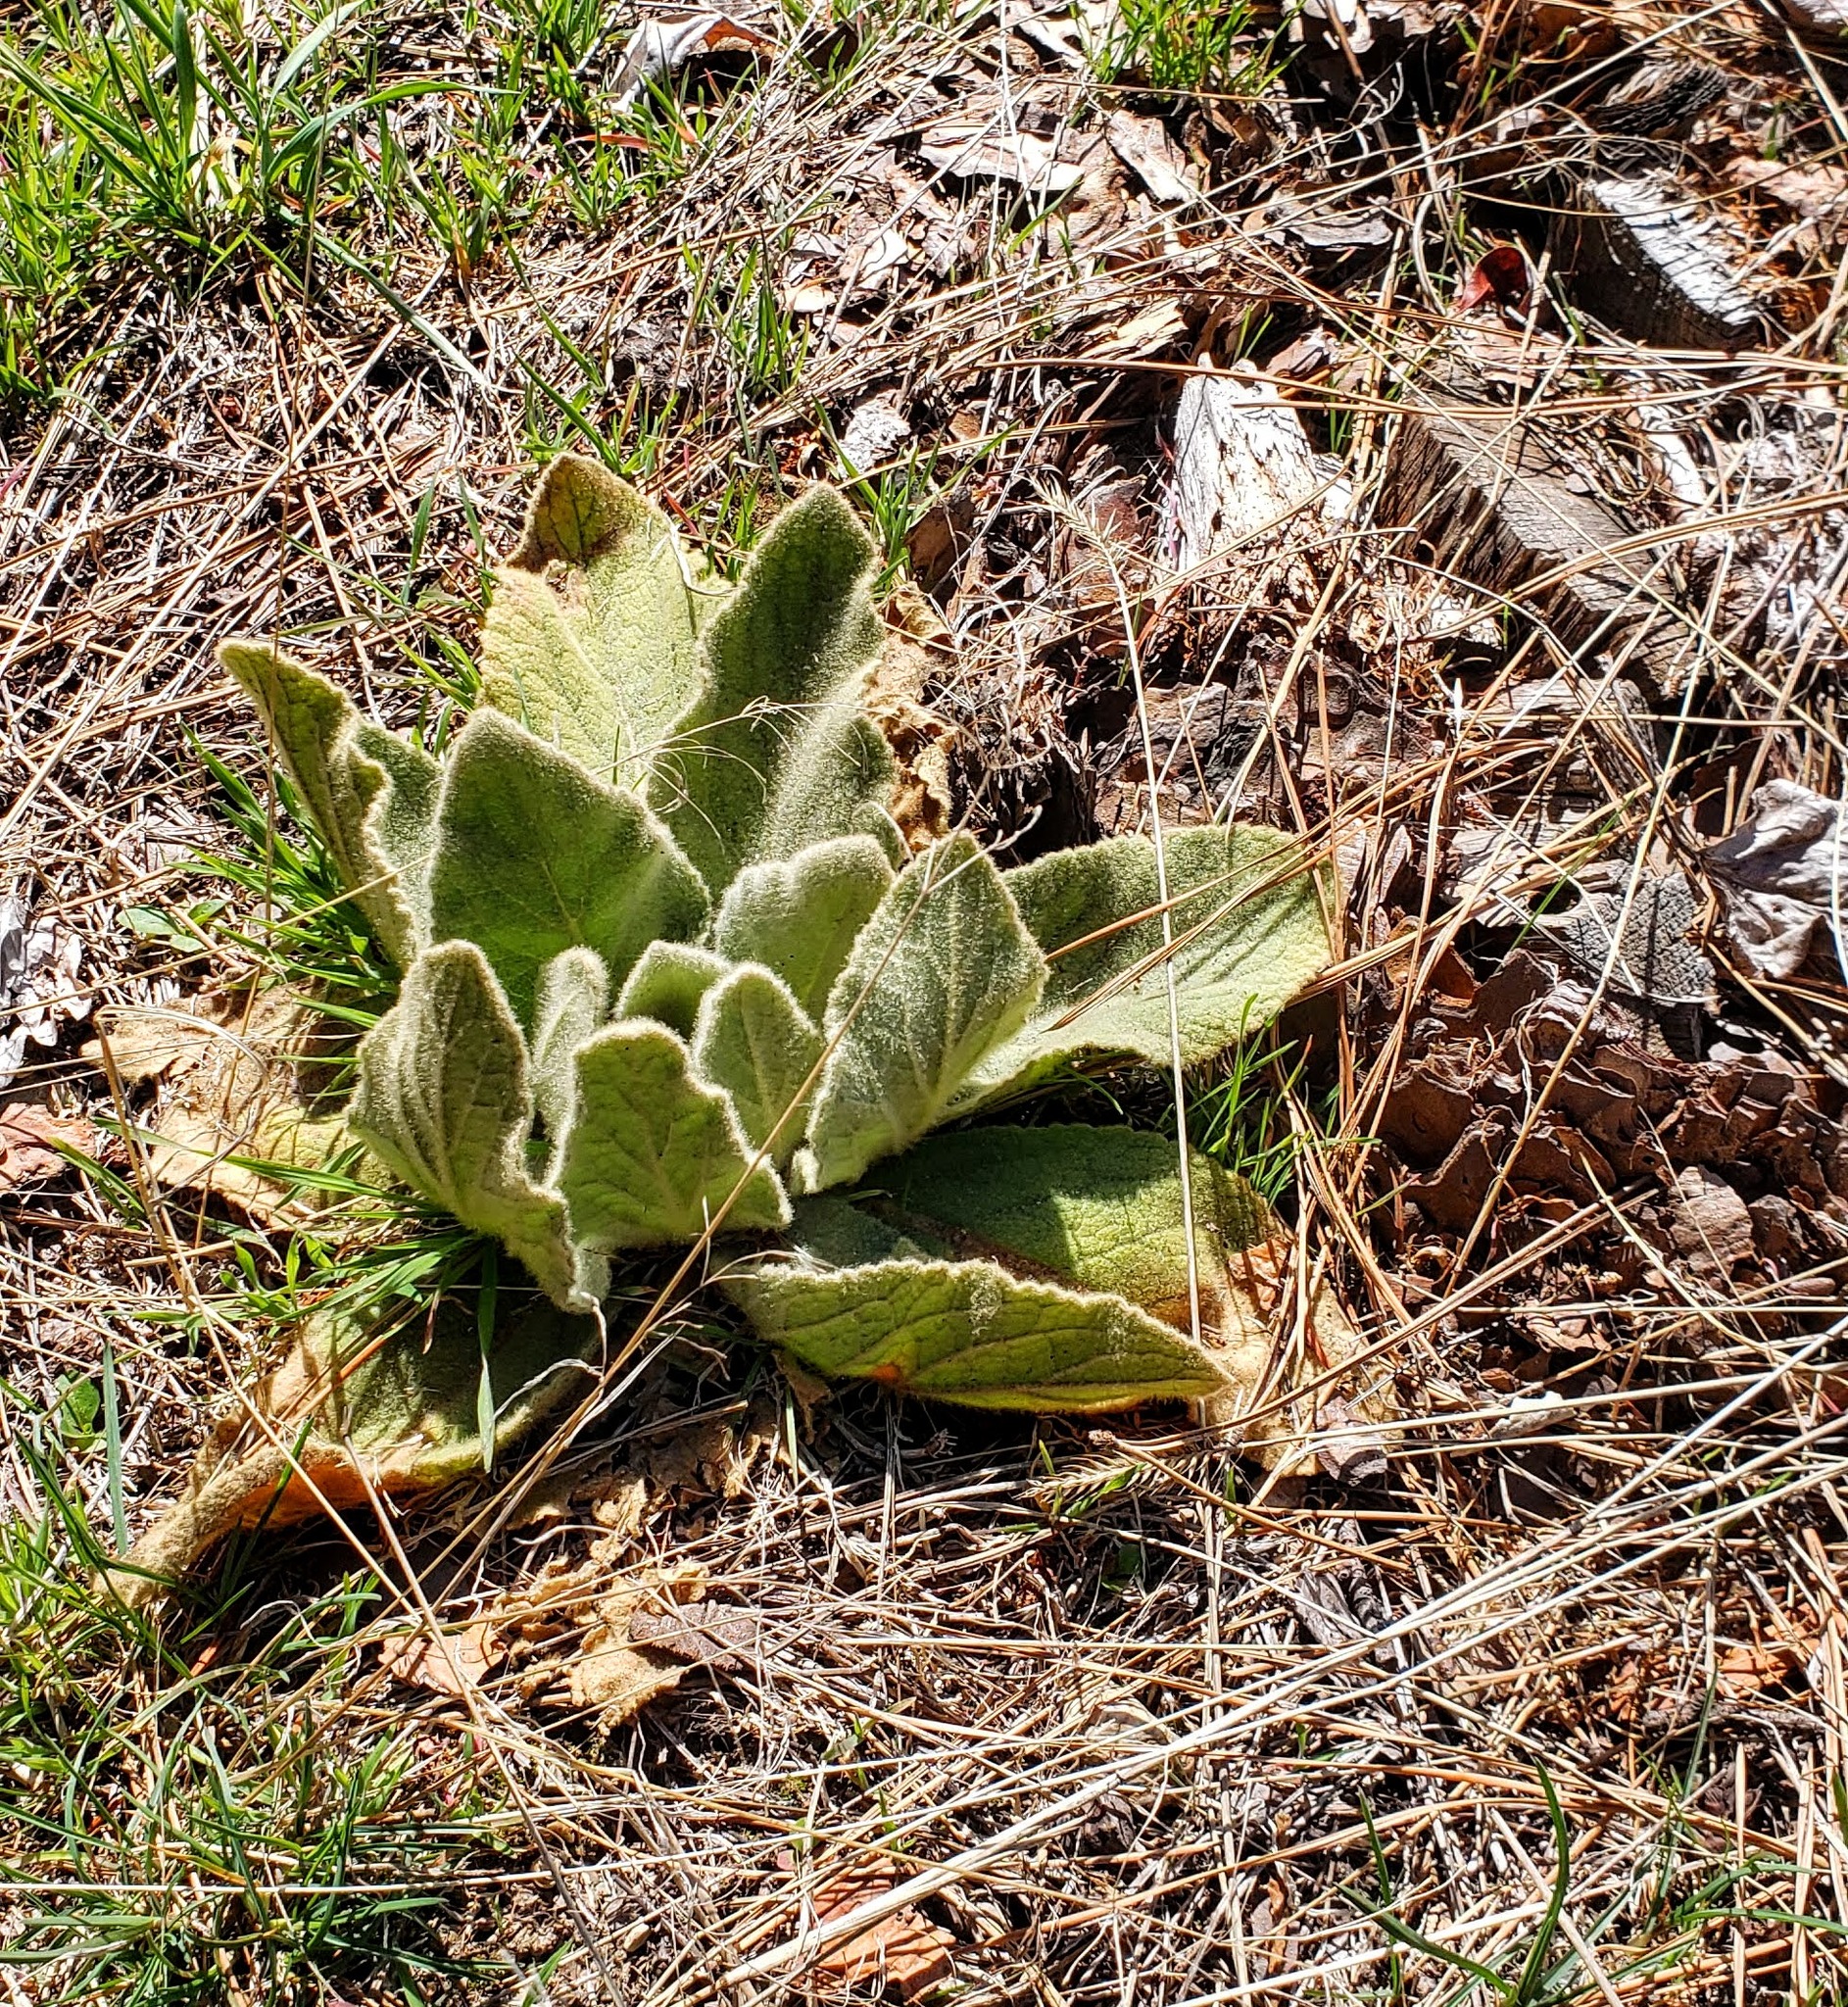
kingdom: Plantae
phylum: Tracheophyta
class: Magnoliopsida
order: Lamiales
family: Scrophulariaceae
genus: Verbascum
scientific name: Verbascum thapsus
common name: Common mullein
